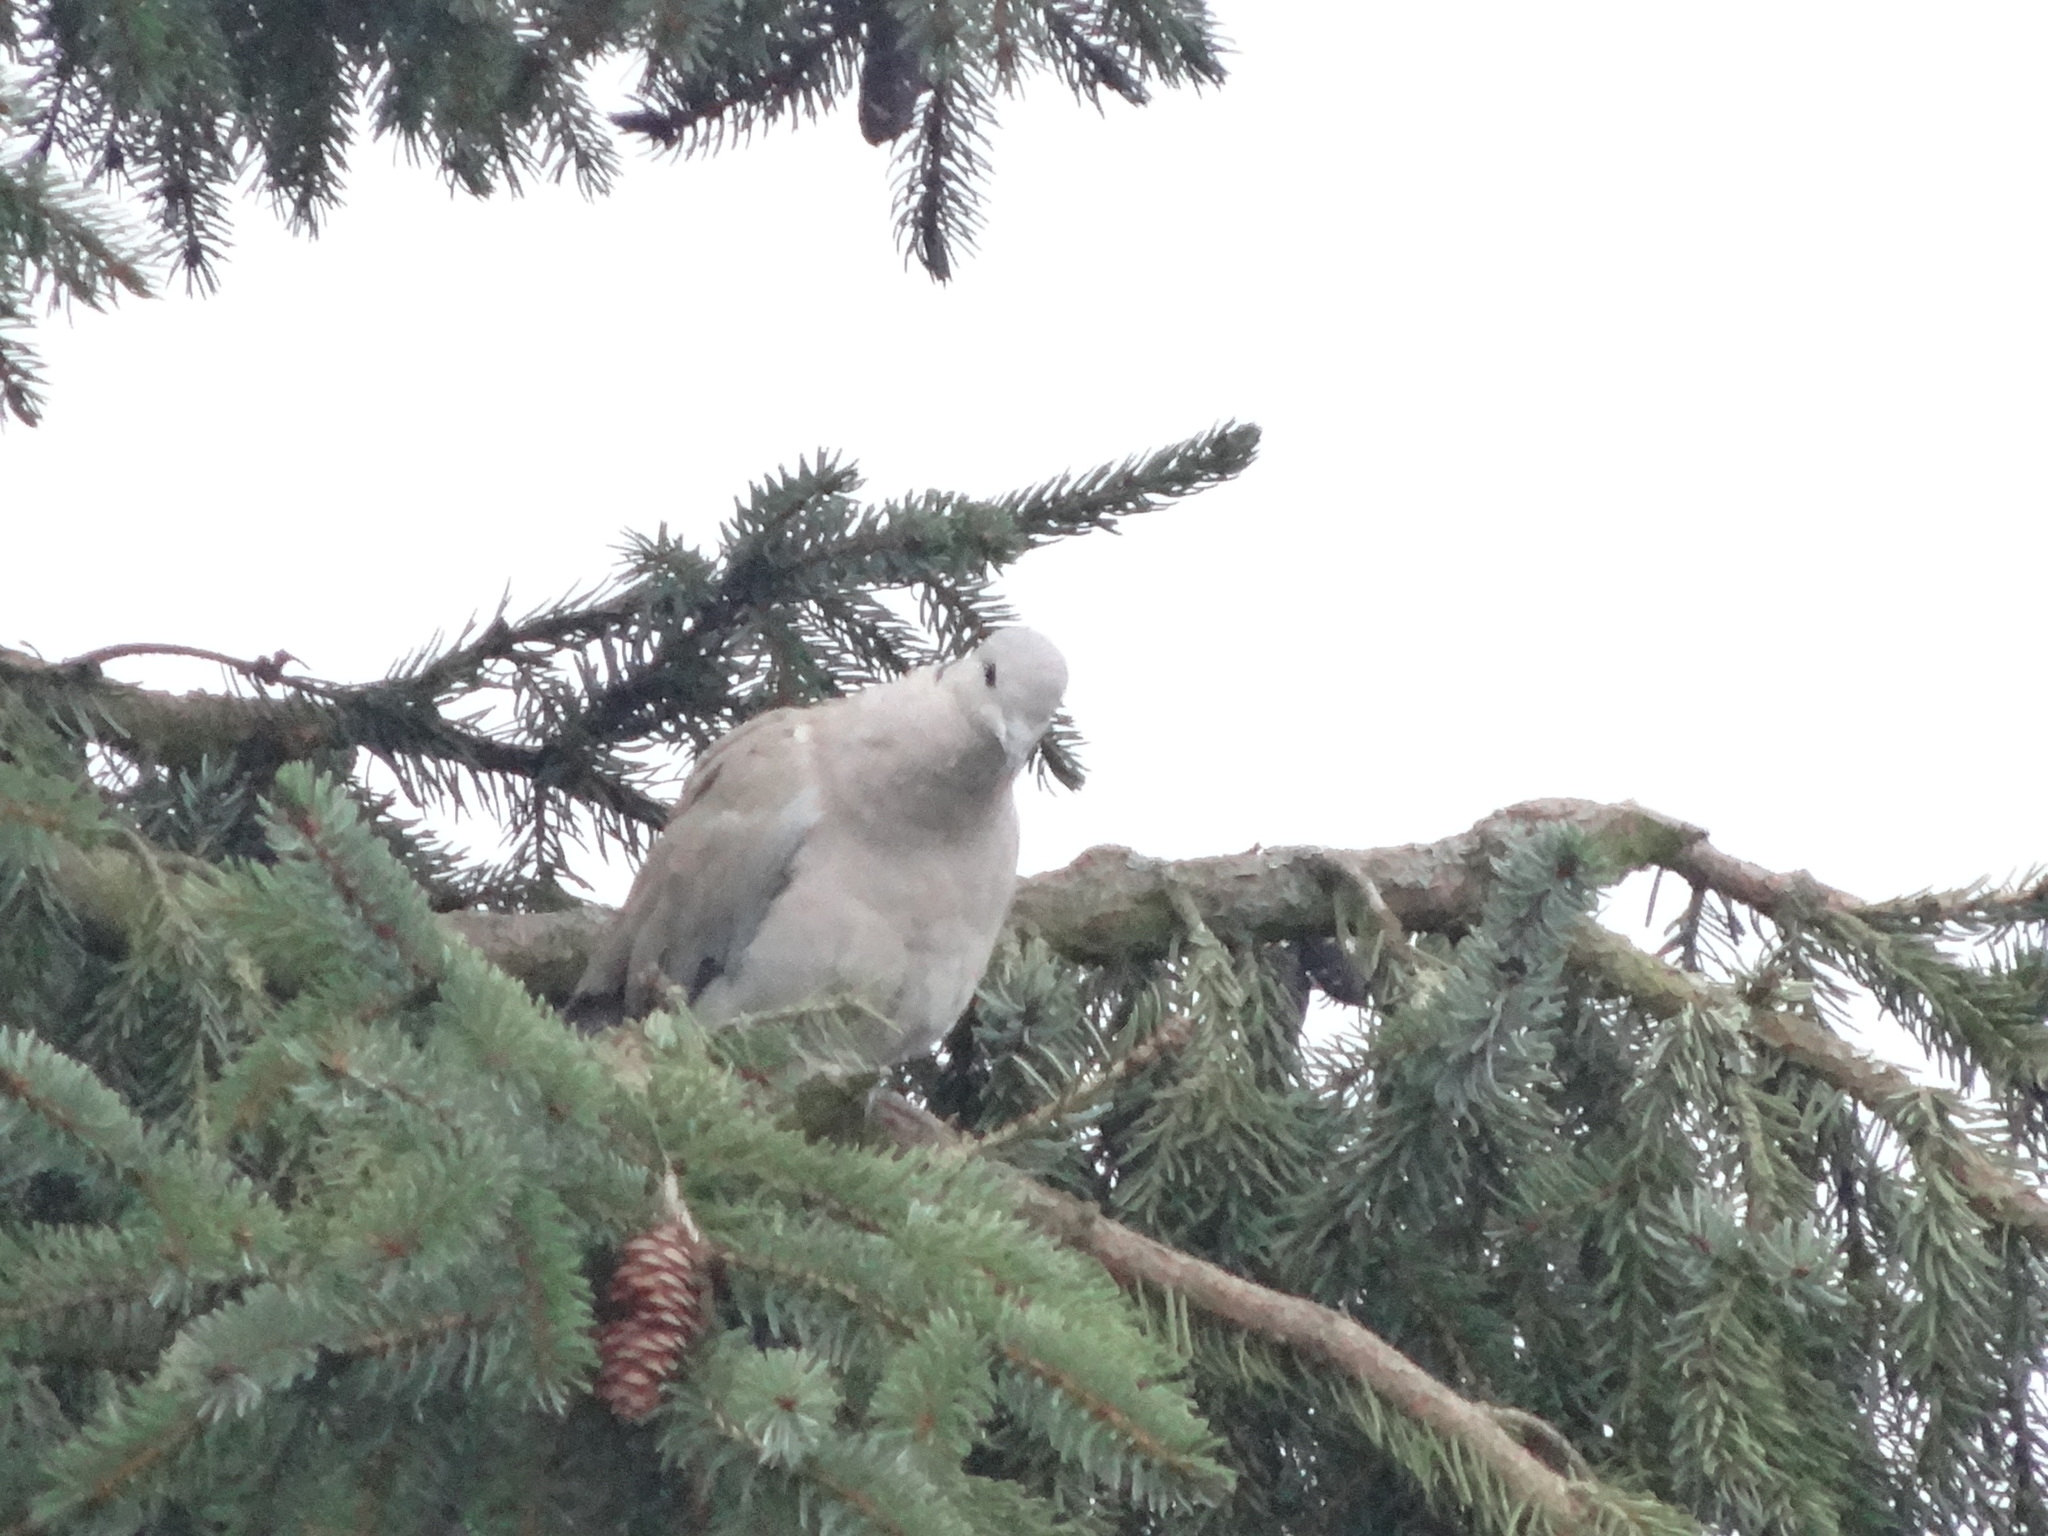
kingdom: Animalia
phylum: Chordata
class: Aves
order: Columbiformes
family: Columbidae
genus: Streptopelia
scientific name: Streptopelia decaocto
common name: Eurasian collared dove
